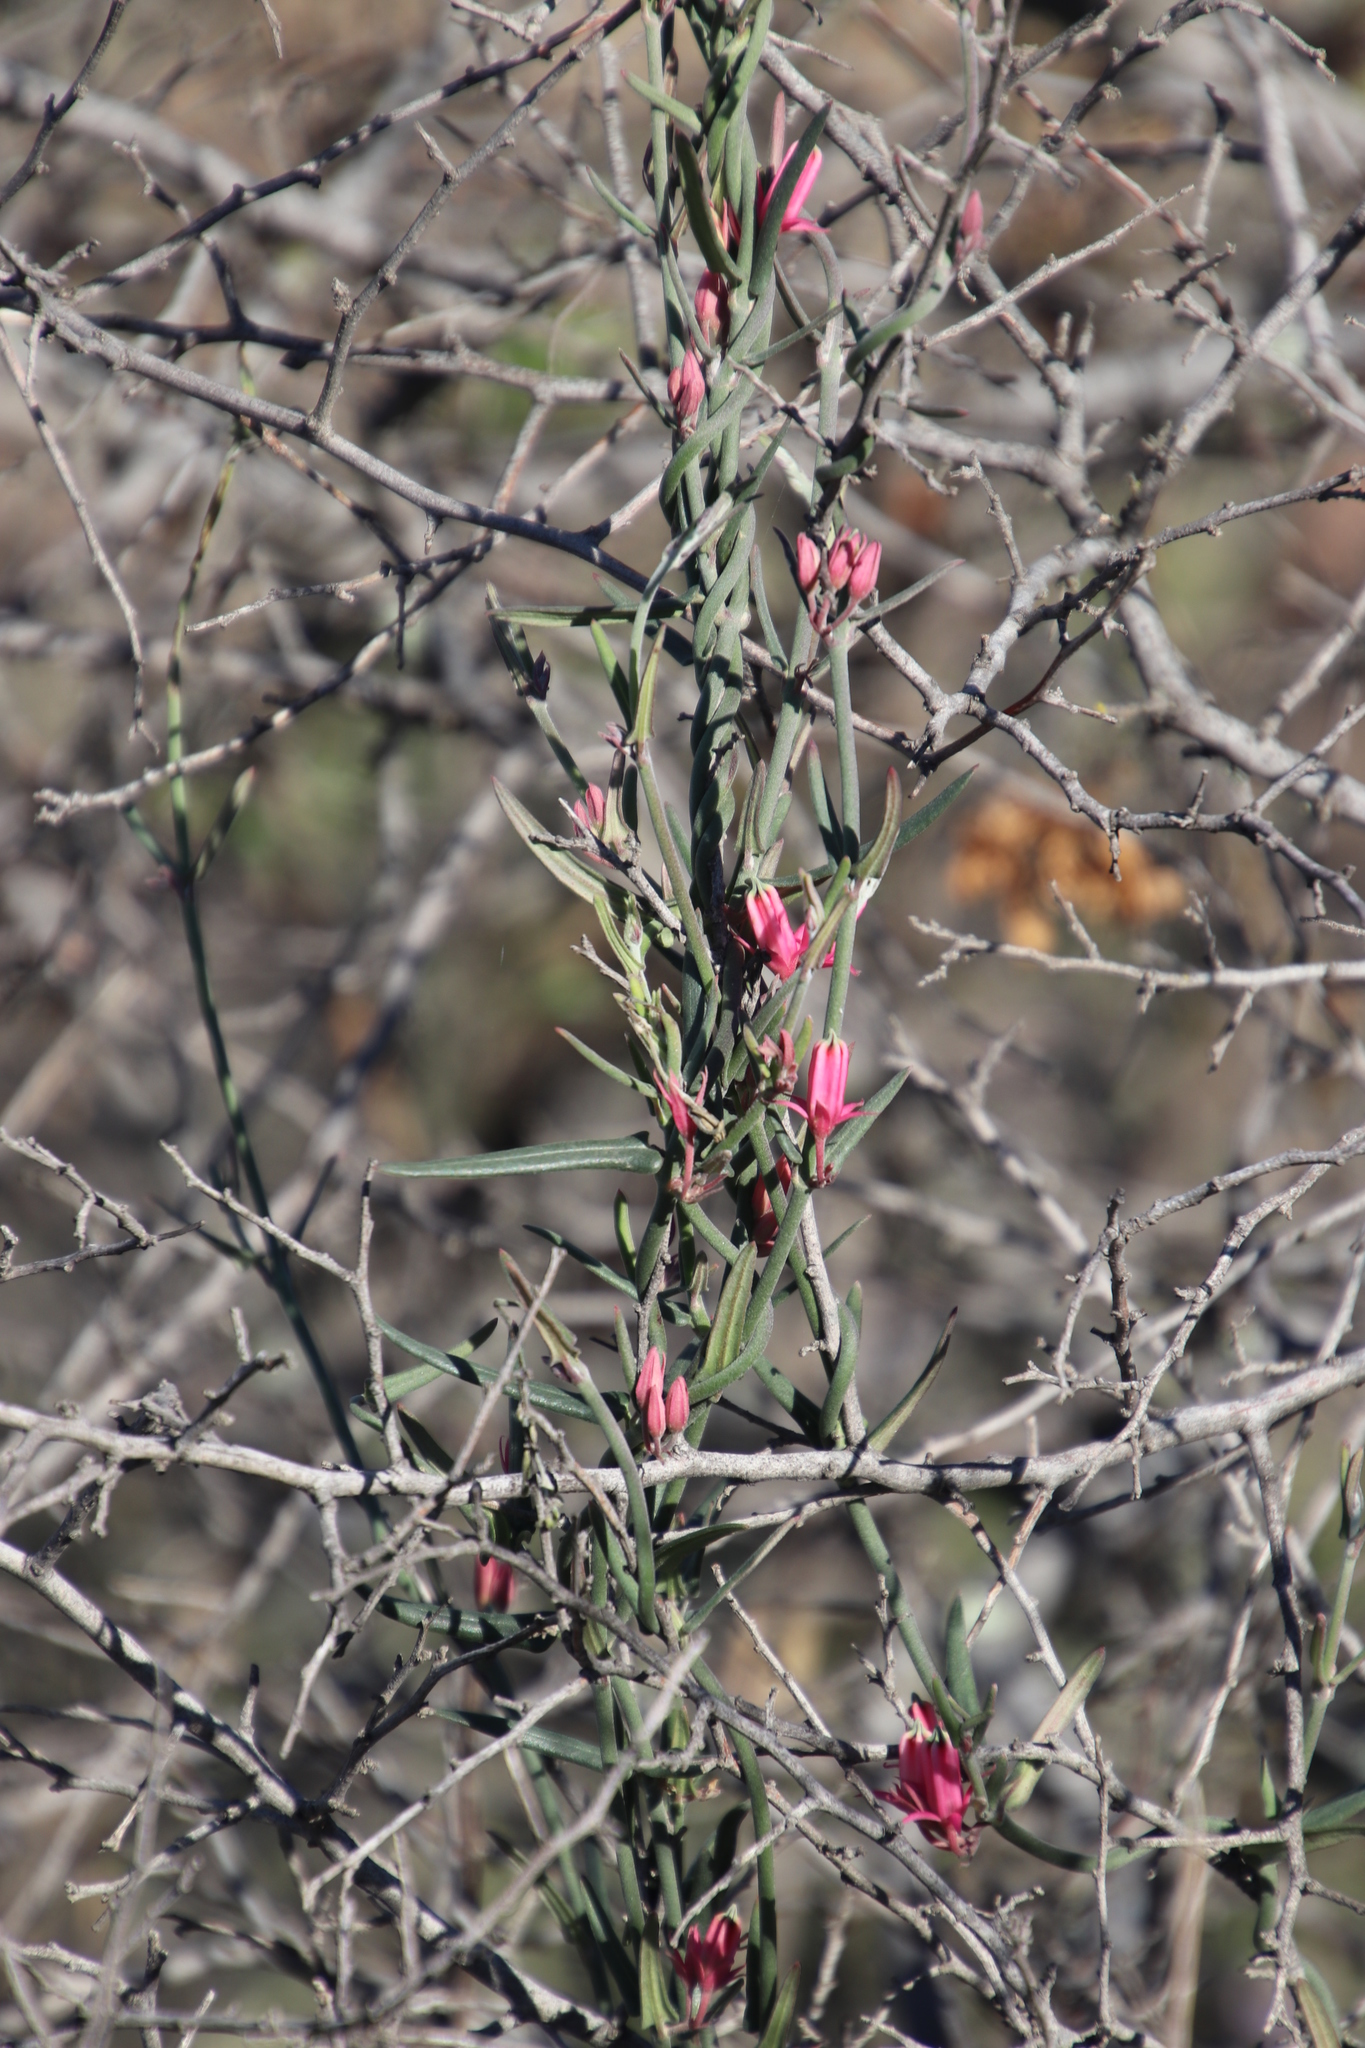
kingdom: Plantae
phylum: Tracheophyta
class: Magnoliopsida
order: Gentianales
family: Apocynaceae
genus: Microloma
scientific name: Microloma sagittatum
